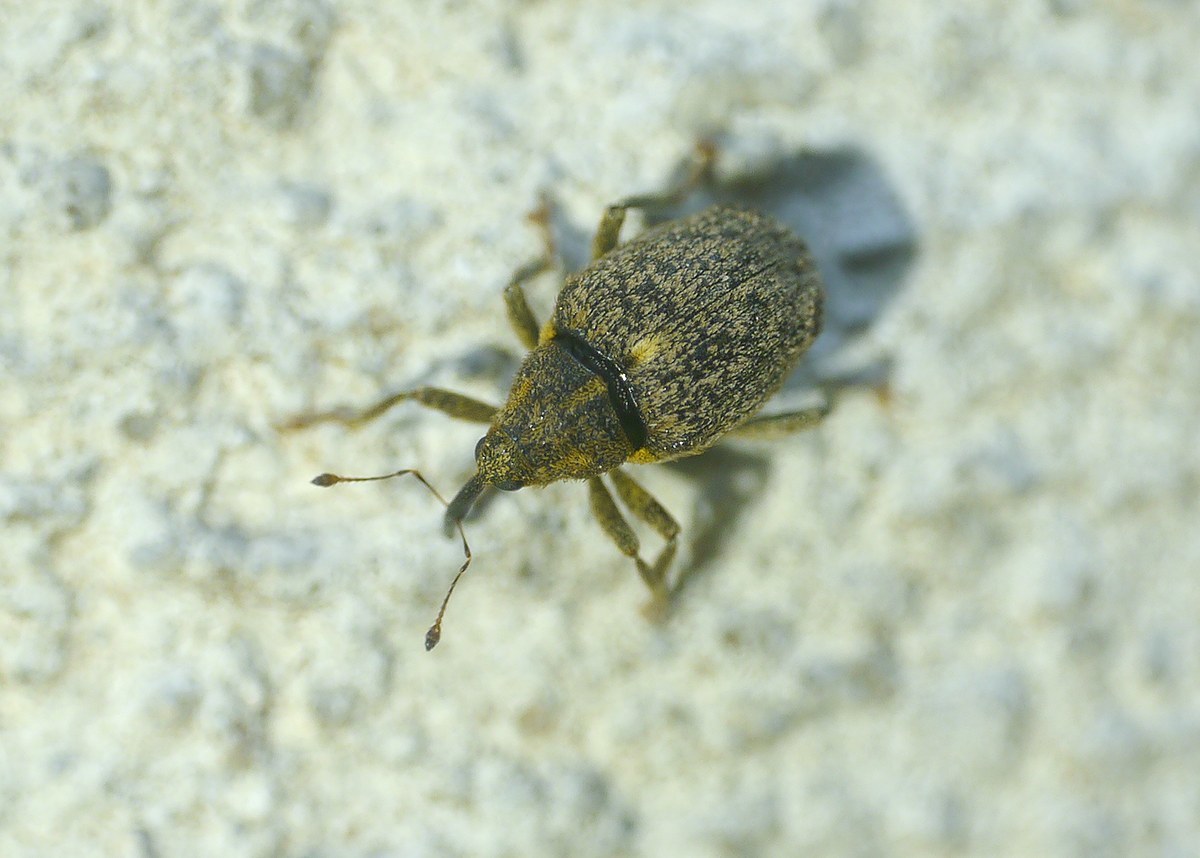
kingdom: Animalia
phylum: Arthropoda
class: Insecta
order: Coleoptera
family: Curculionidae
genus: Ceutorhynchus
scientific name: Ceutorhynchus pallidactylus
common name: Cabbage stem weavil
